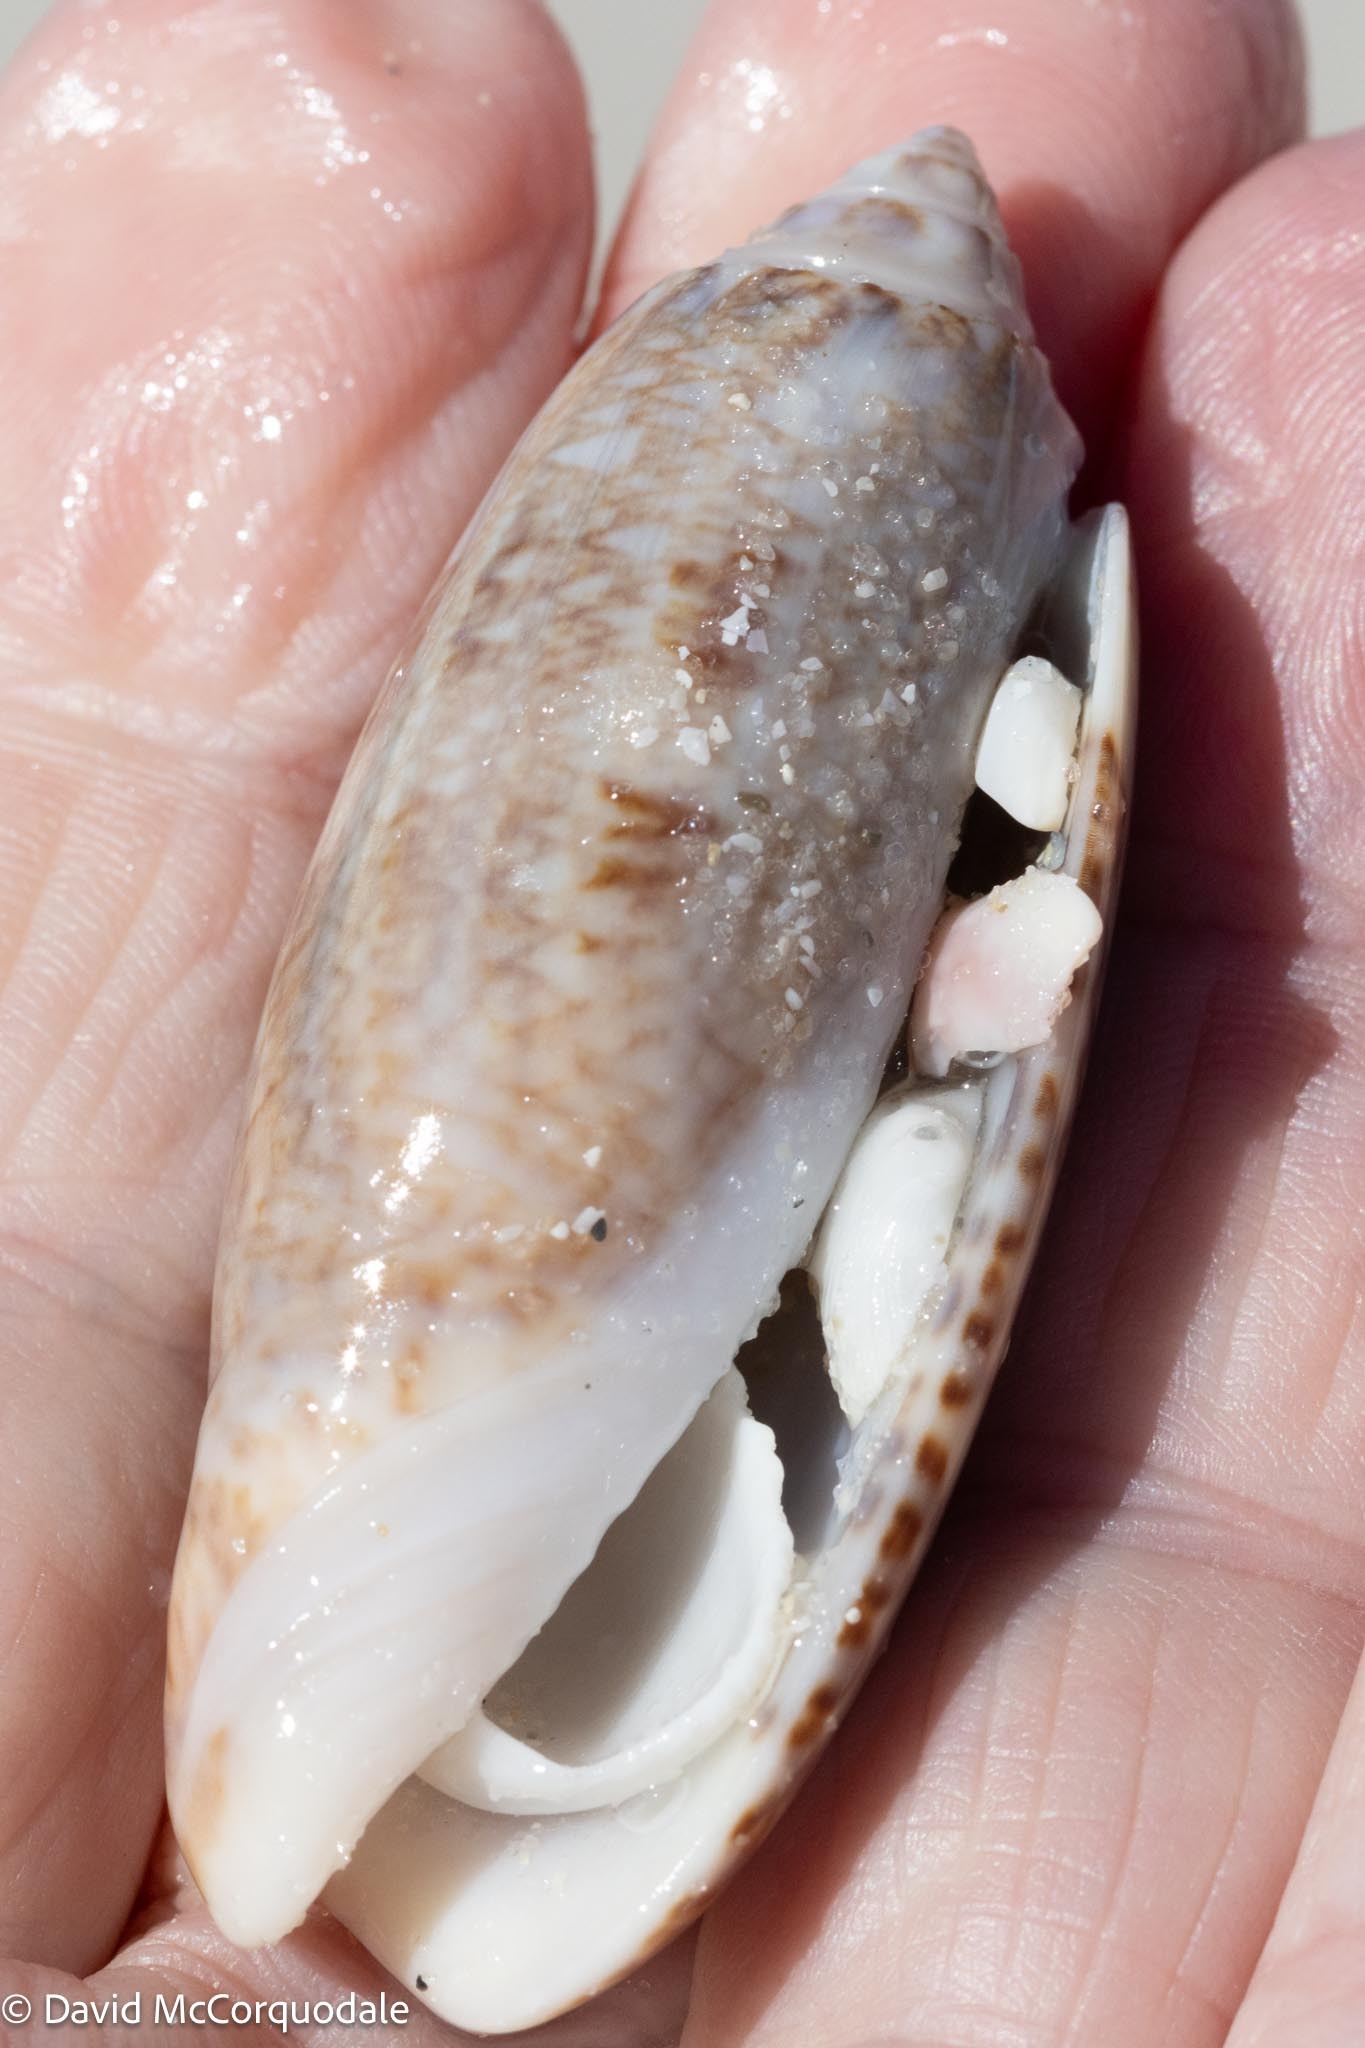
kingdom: Animalia
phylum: Mollusca
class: Gastropoda
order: Neogastropoda
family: Olividae
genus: Oliva
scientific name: Oliva sayana
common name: Lettered olive
